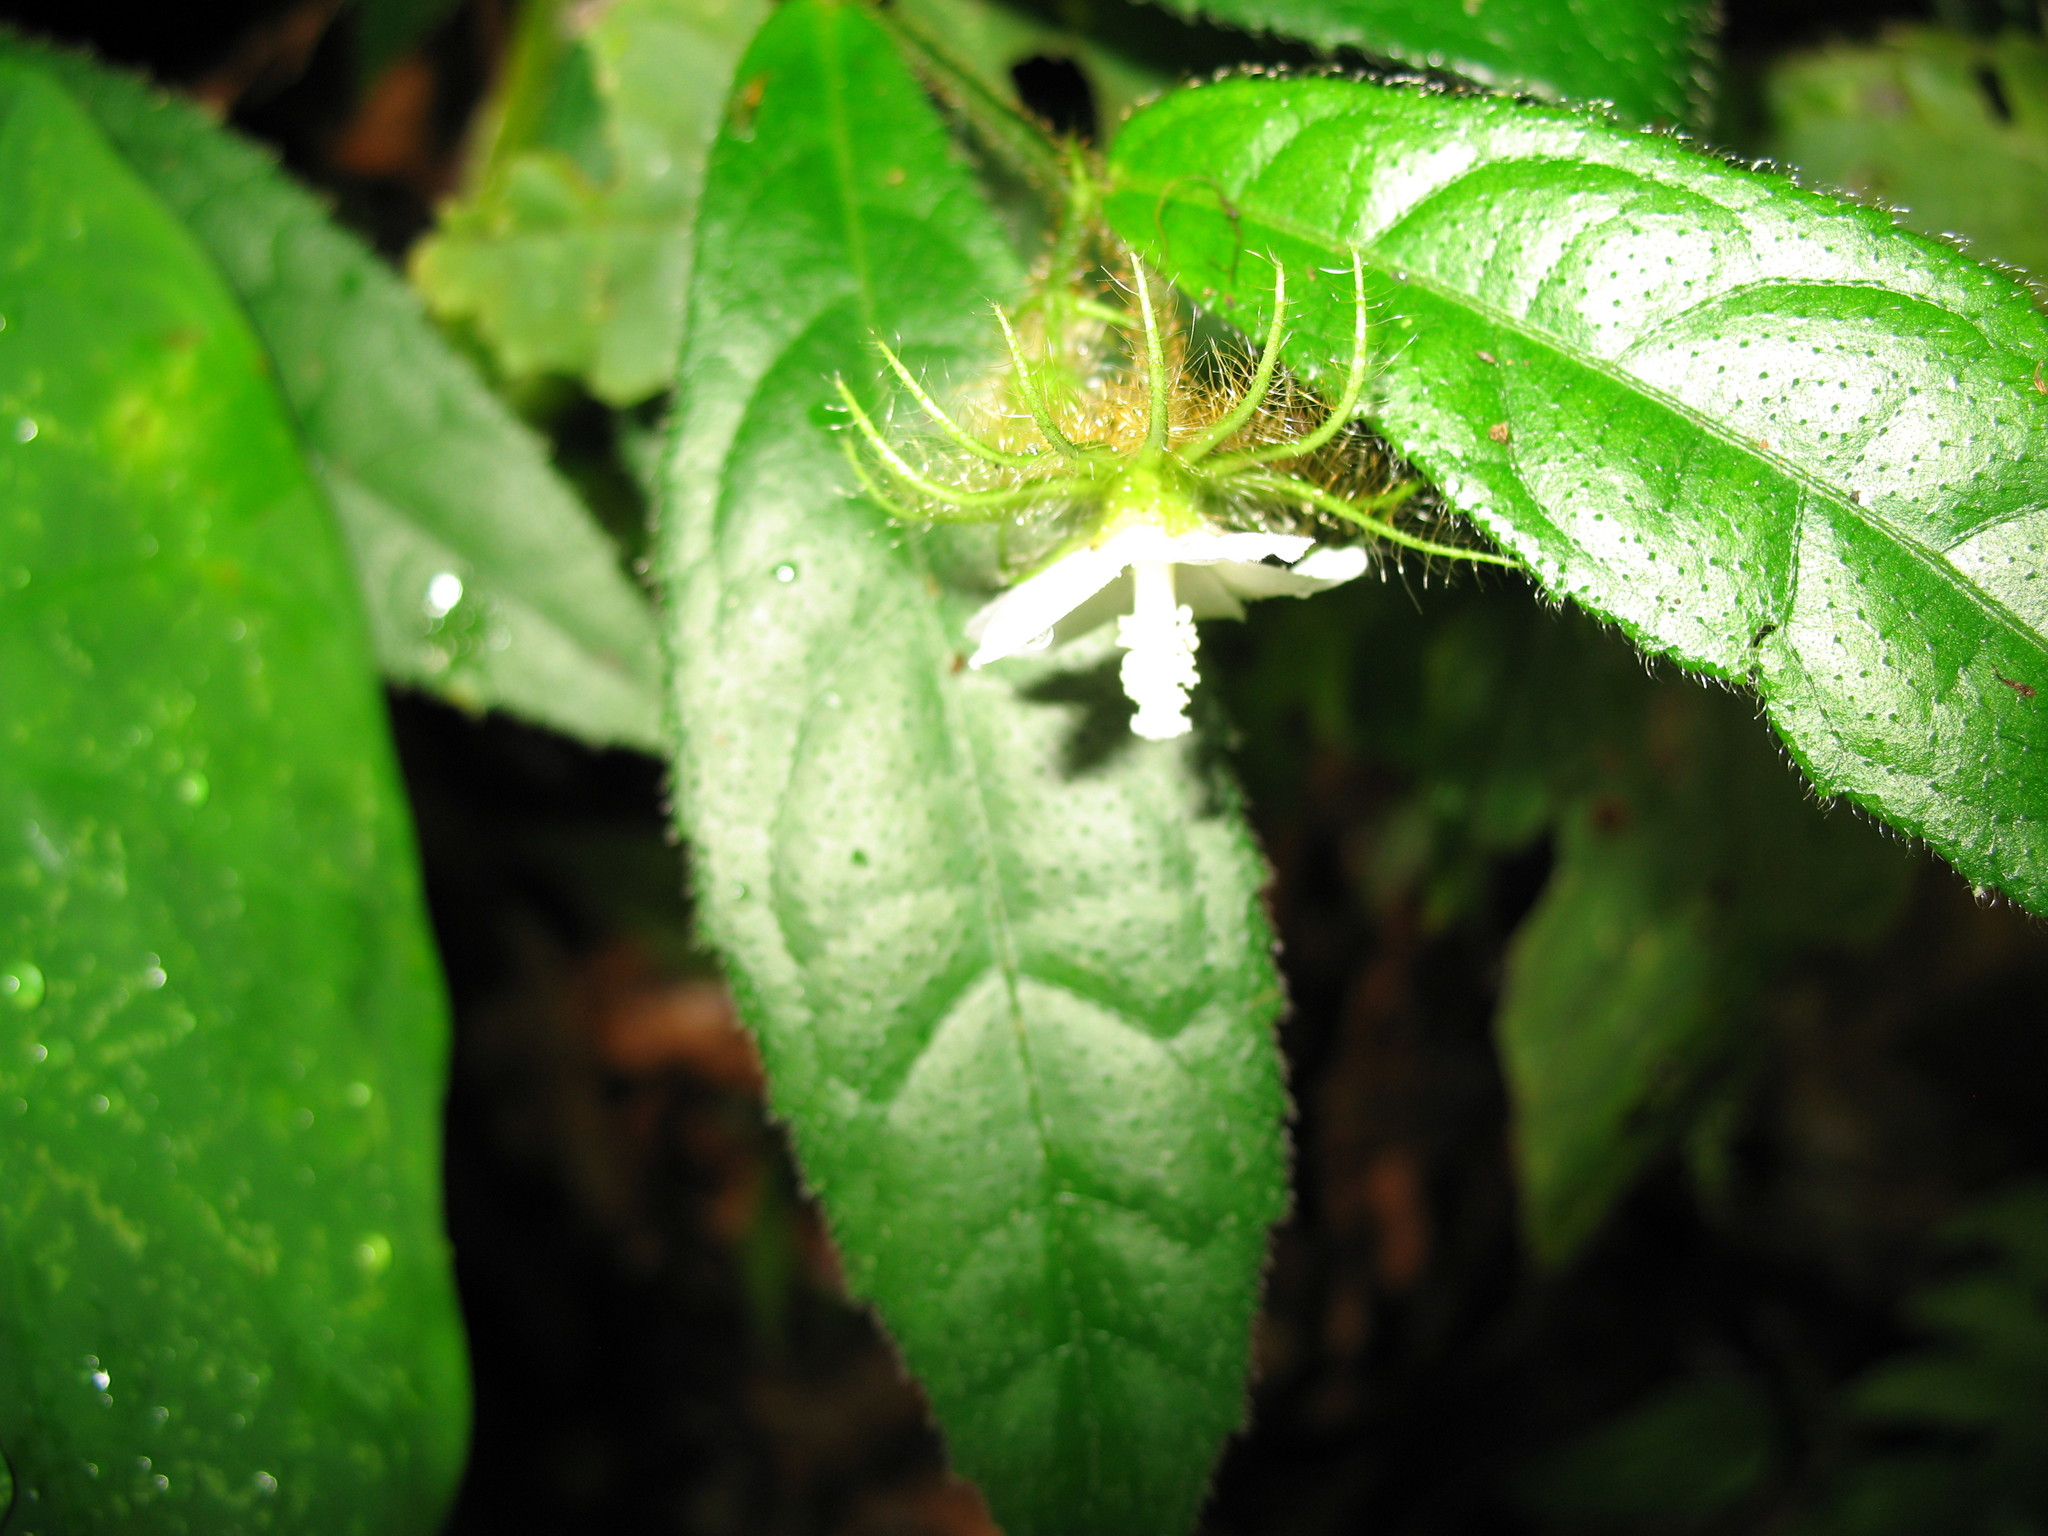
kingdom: Plantae
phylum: Tracheophyta
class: Magnoliopsida
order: Malvales
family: Malvaceae
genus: Pavonia
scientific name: Pavonia fruticosa
